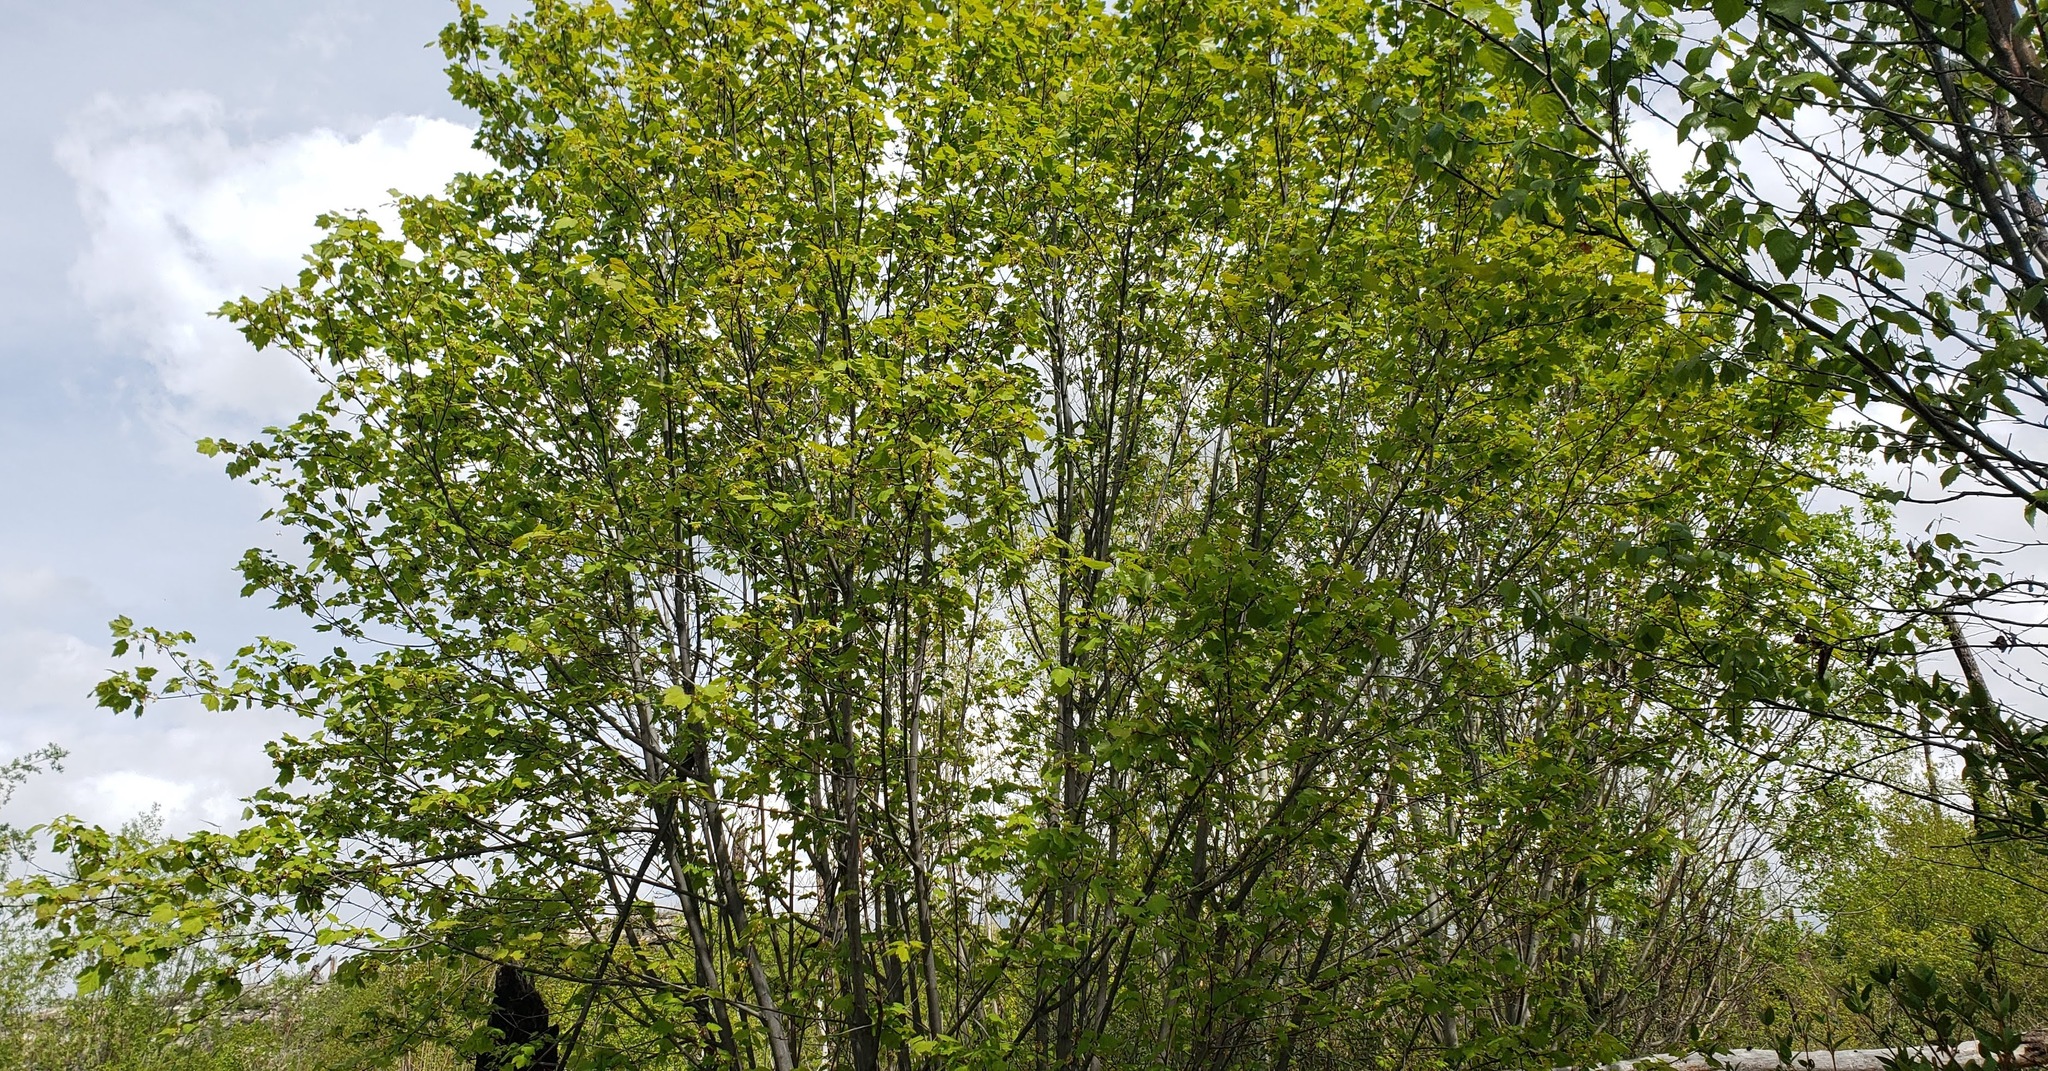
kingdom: Plantae
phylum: Tracheophyta
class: Magnoliopsida
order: Sapindales
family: Sapindaceae
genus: Acer
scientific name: Acer glabrum
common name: Rocky mountain maple
